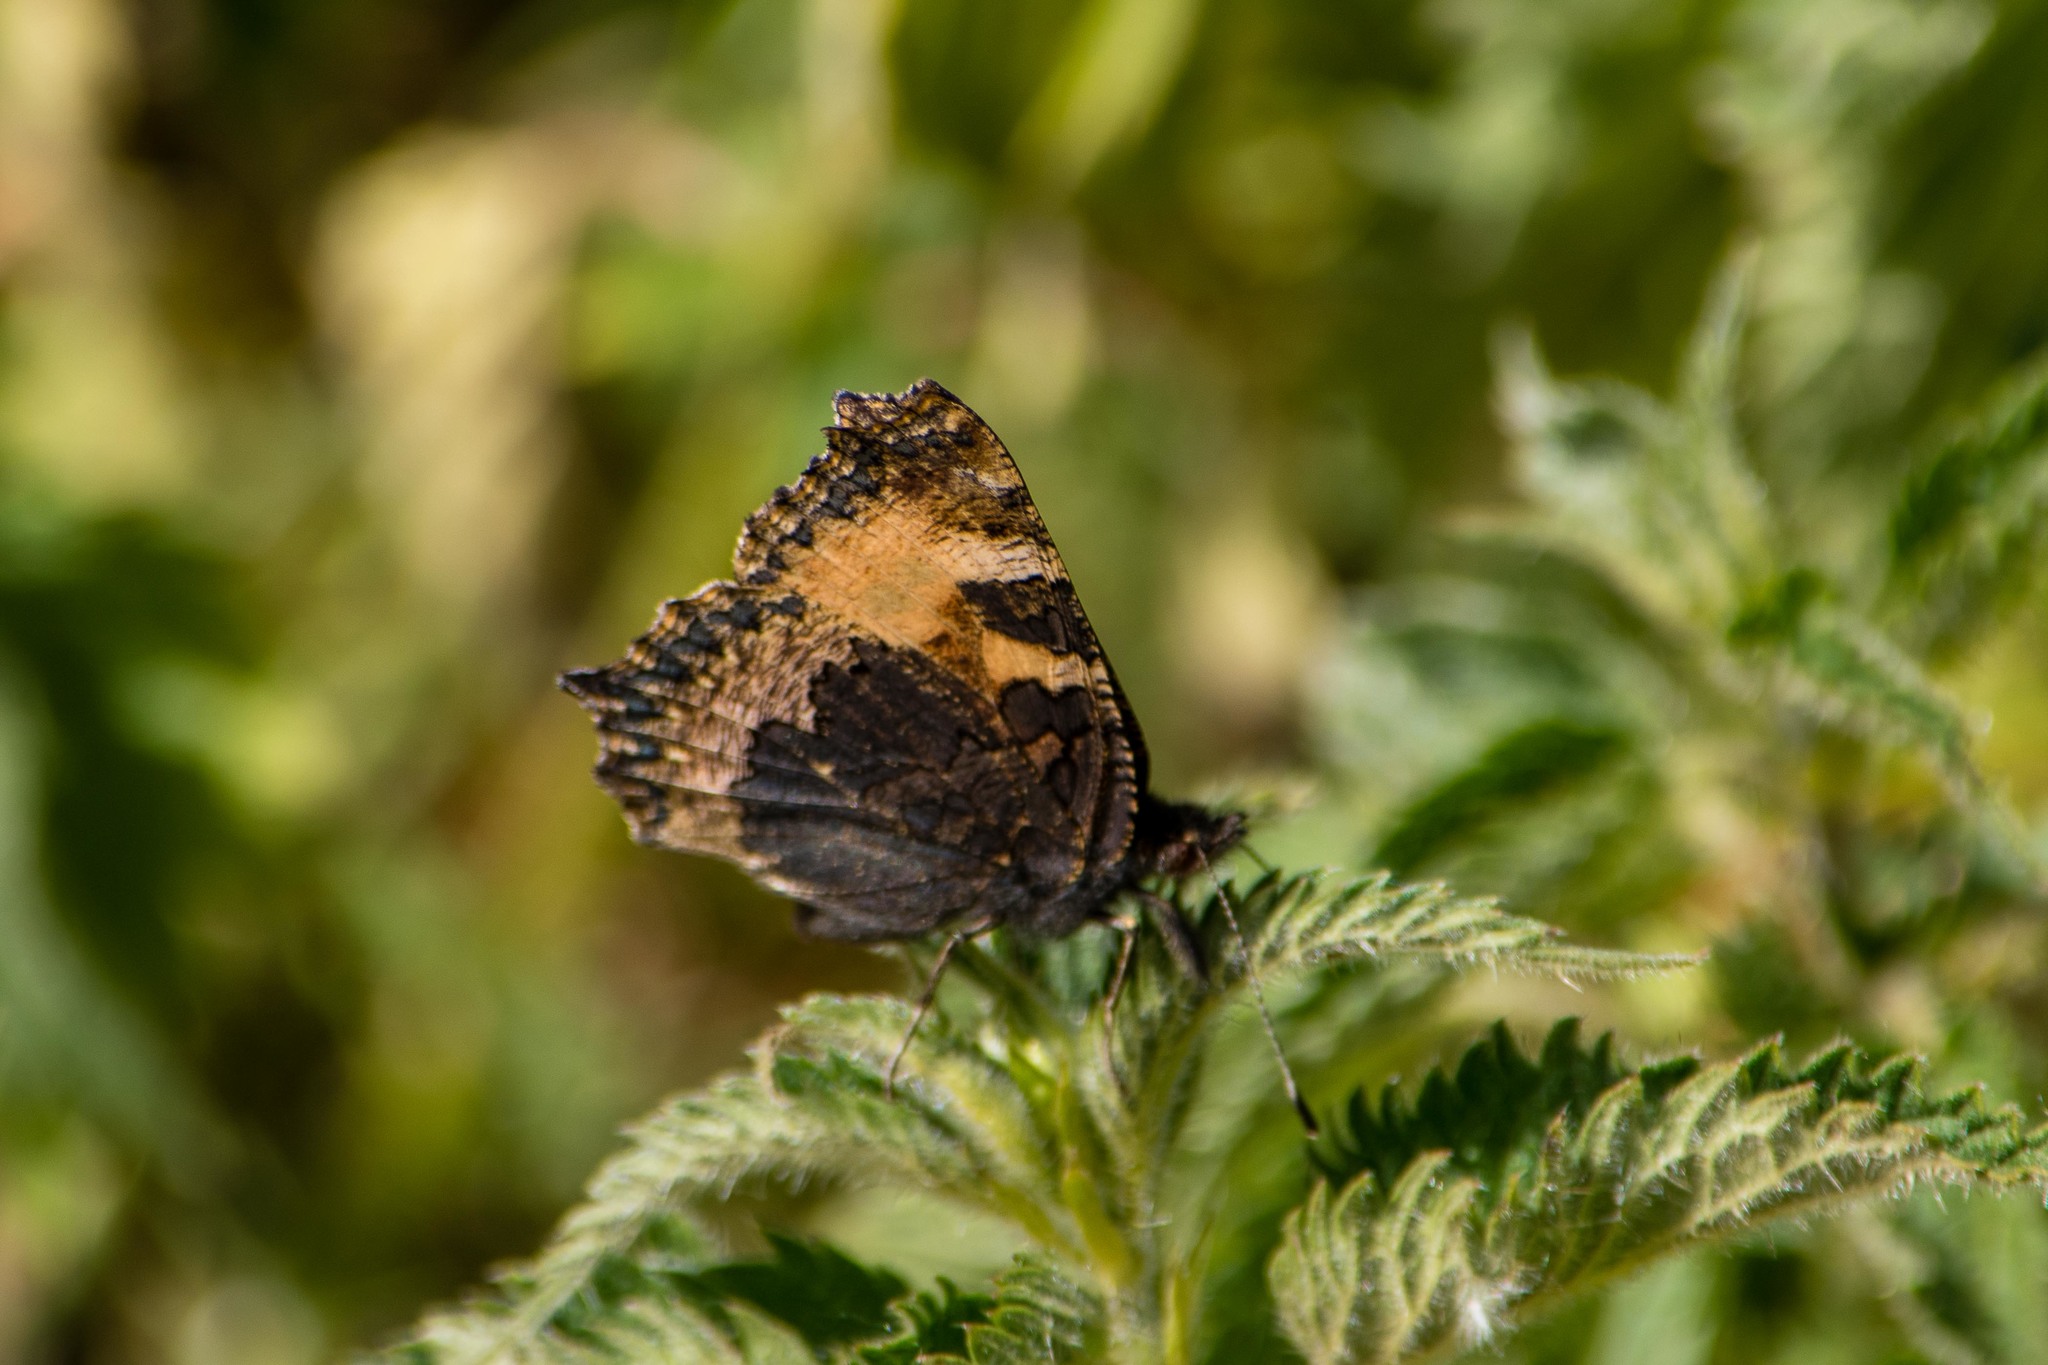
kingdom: Animalia
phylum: Arthropoda
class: Insecta
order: Lepidoptera
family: Nymphalidae
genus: Aglais
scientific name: Aglais urticae
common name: Small tortoiseshell
